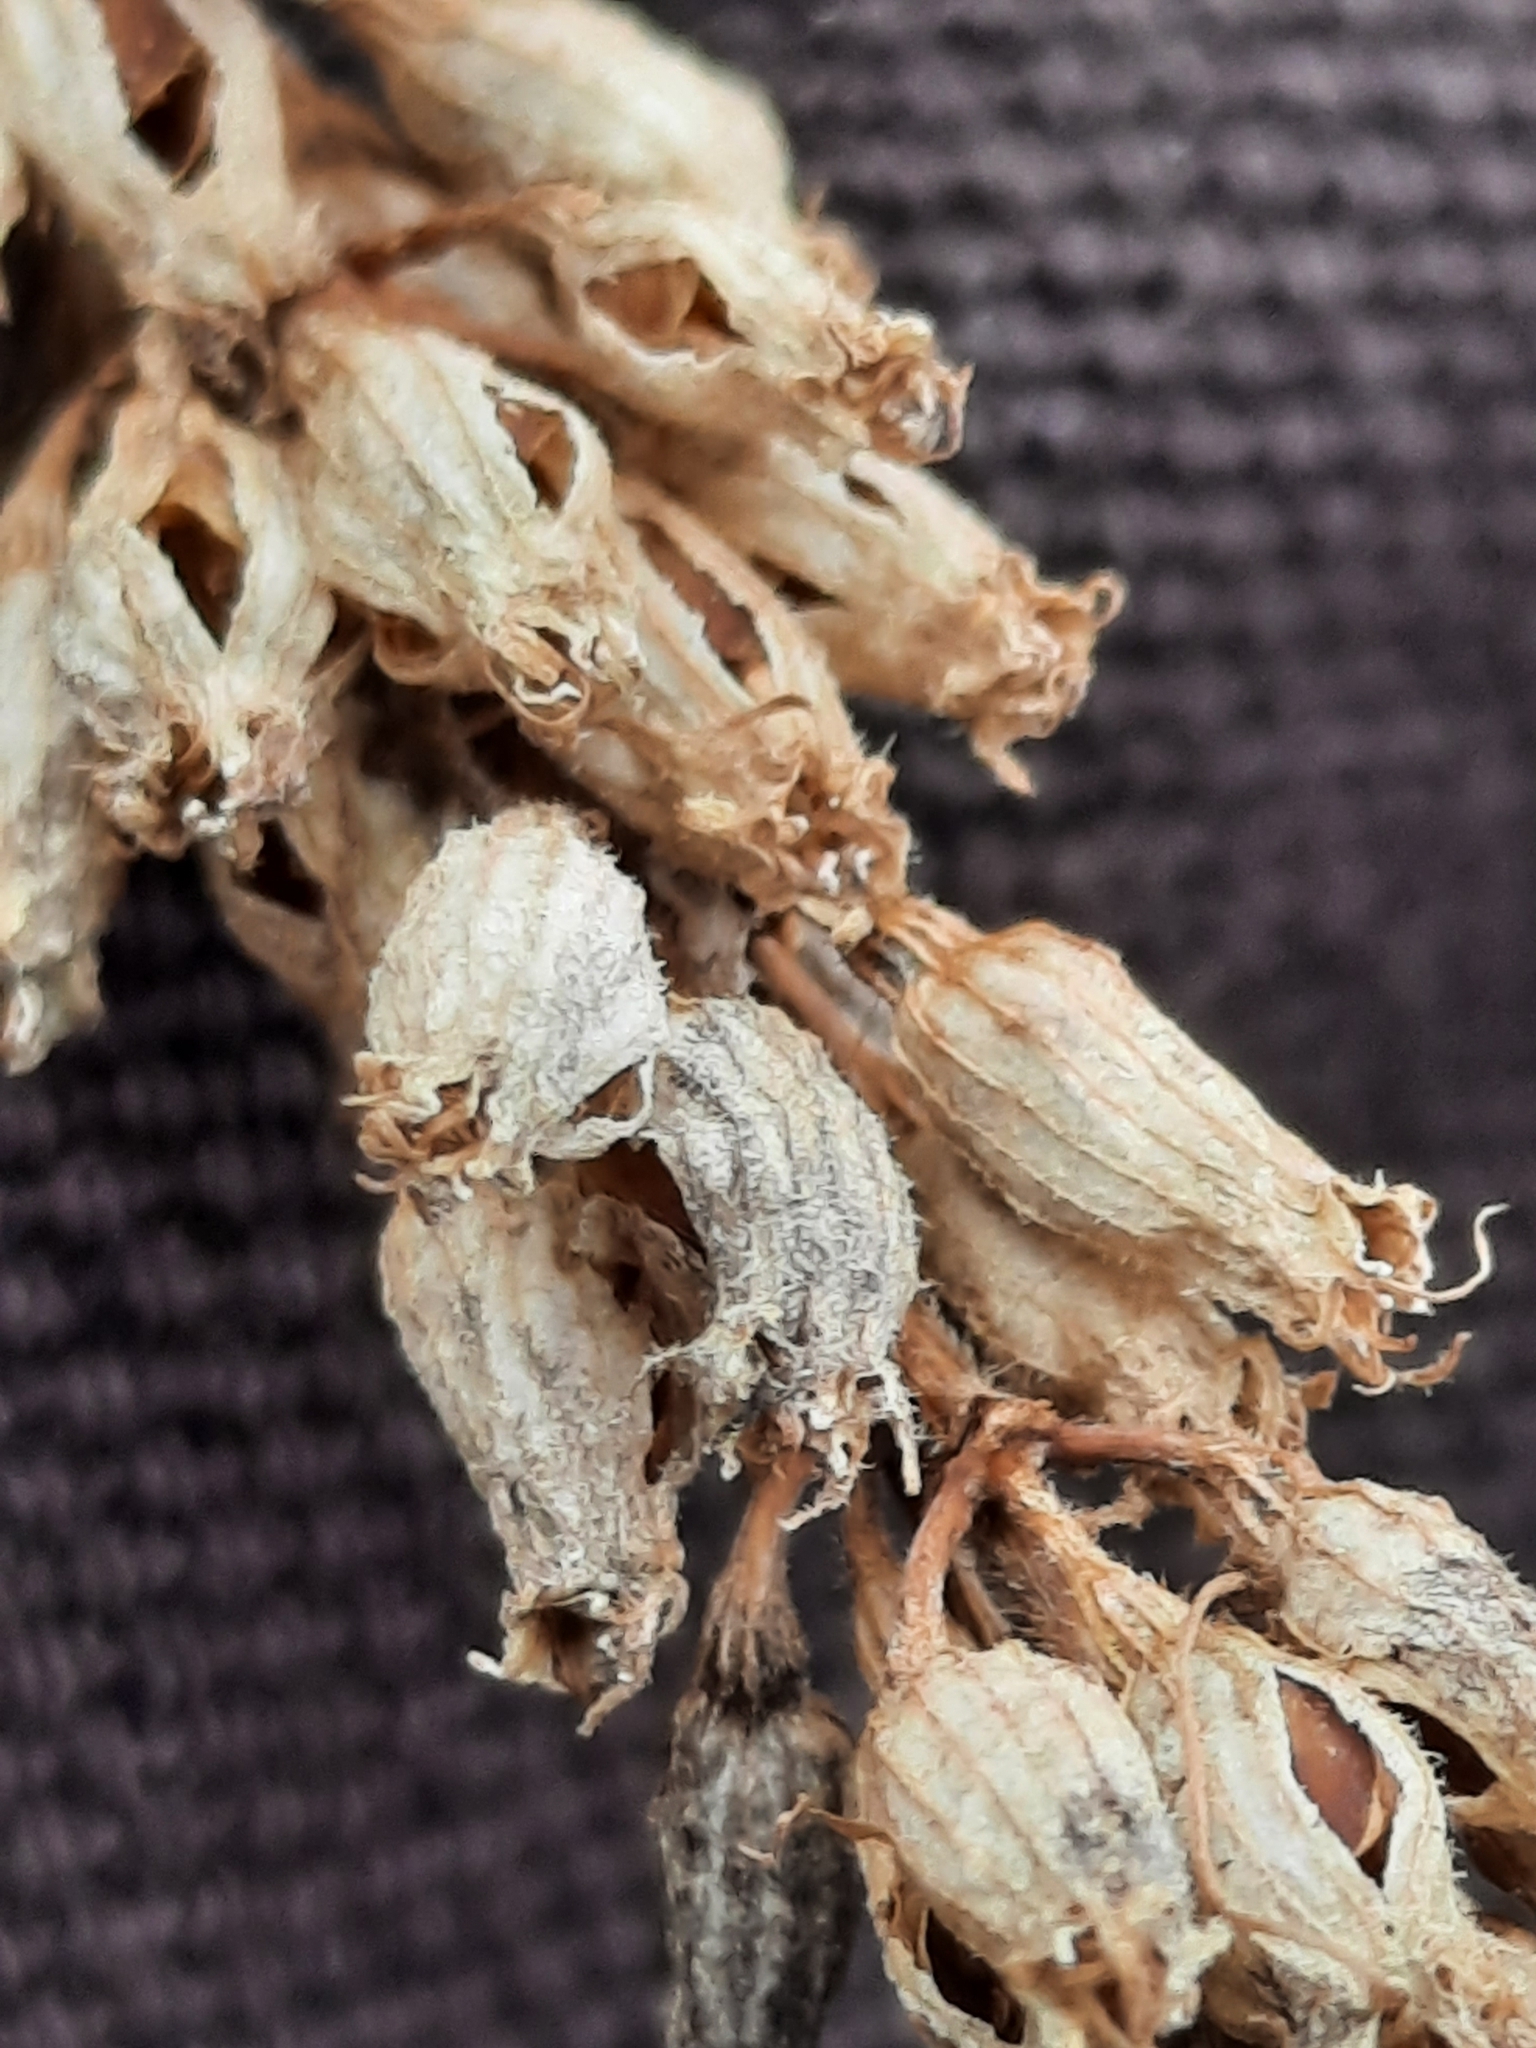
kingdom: Plantae
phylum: Tracheophyta
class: Magnoliopsida
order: Myrtales
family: Lythraceae
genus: Lythrum
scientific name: Lythrum salicaria
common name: Purple loosestrife
